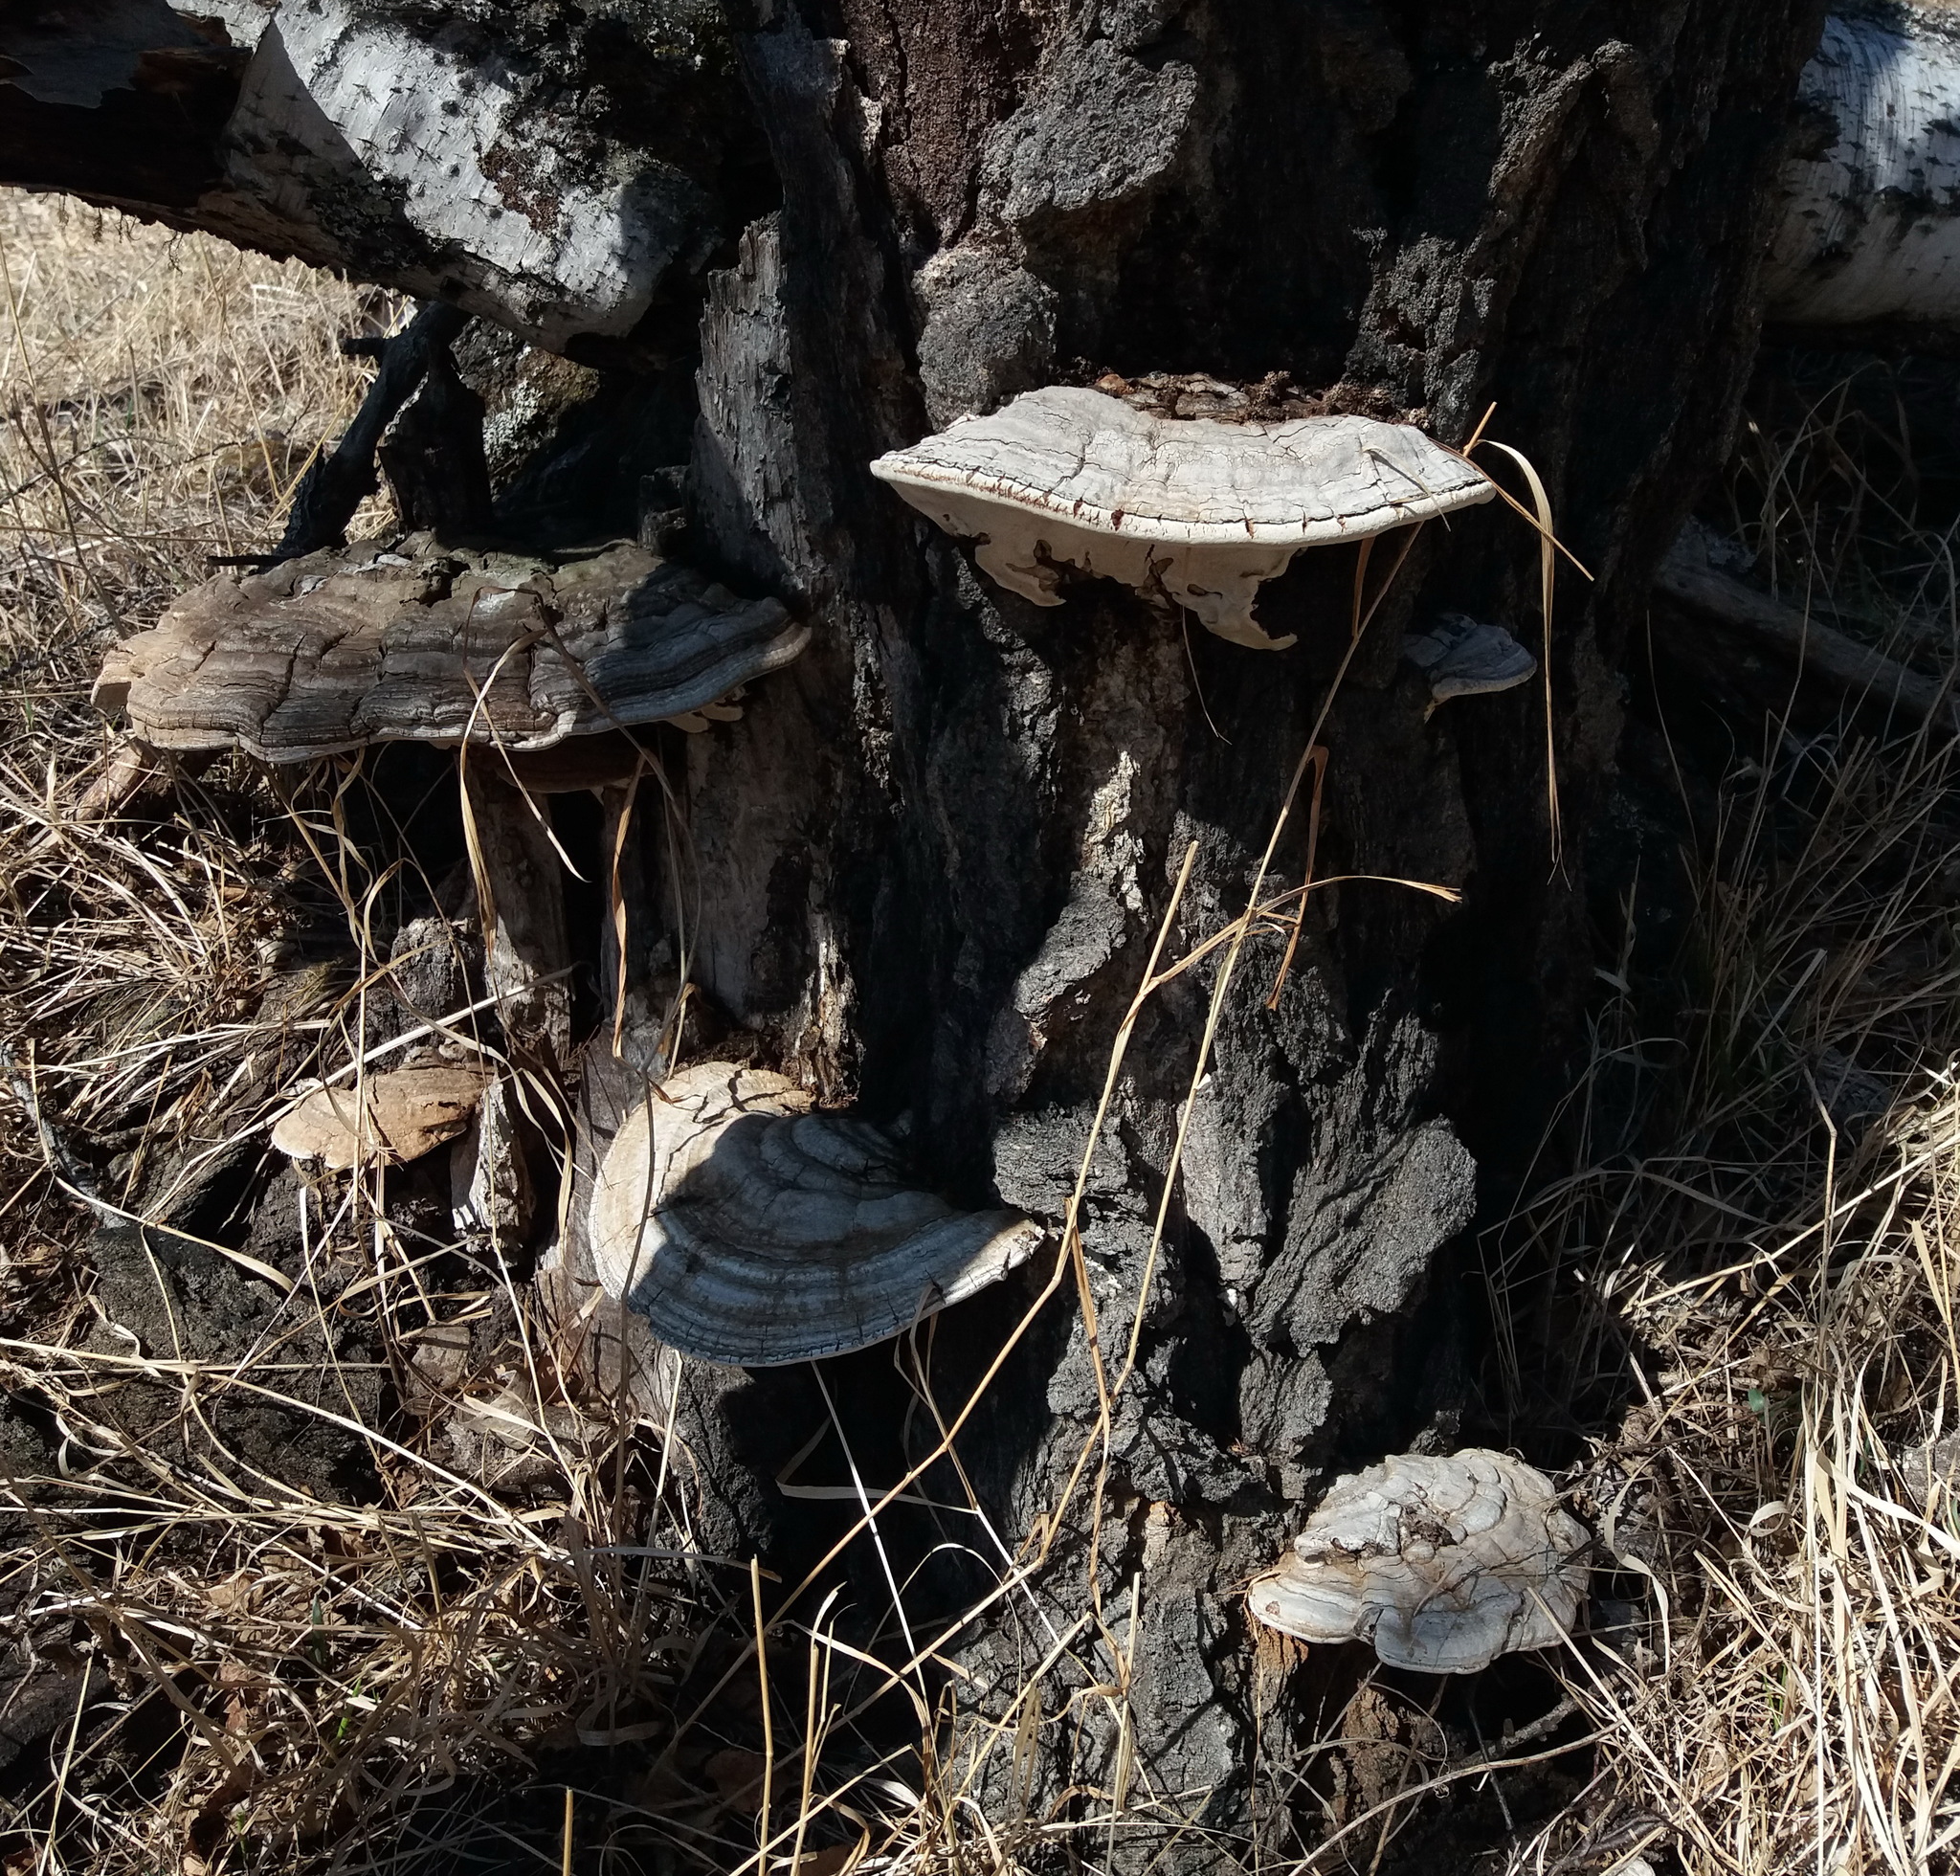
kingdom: Fungi
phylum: Basidiomycota
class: Agaricomycetes
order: Polyporales
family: Polyporaceae
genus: Ganoderma
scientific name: Ganoderma applanatum
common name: Artist's bracket
